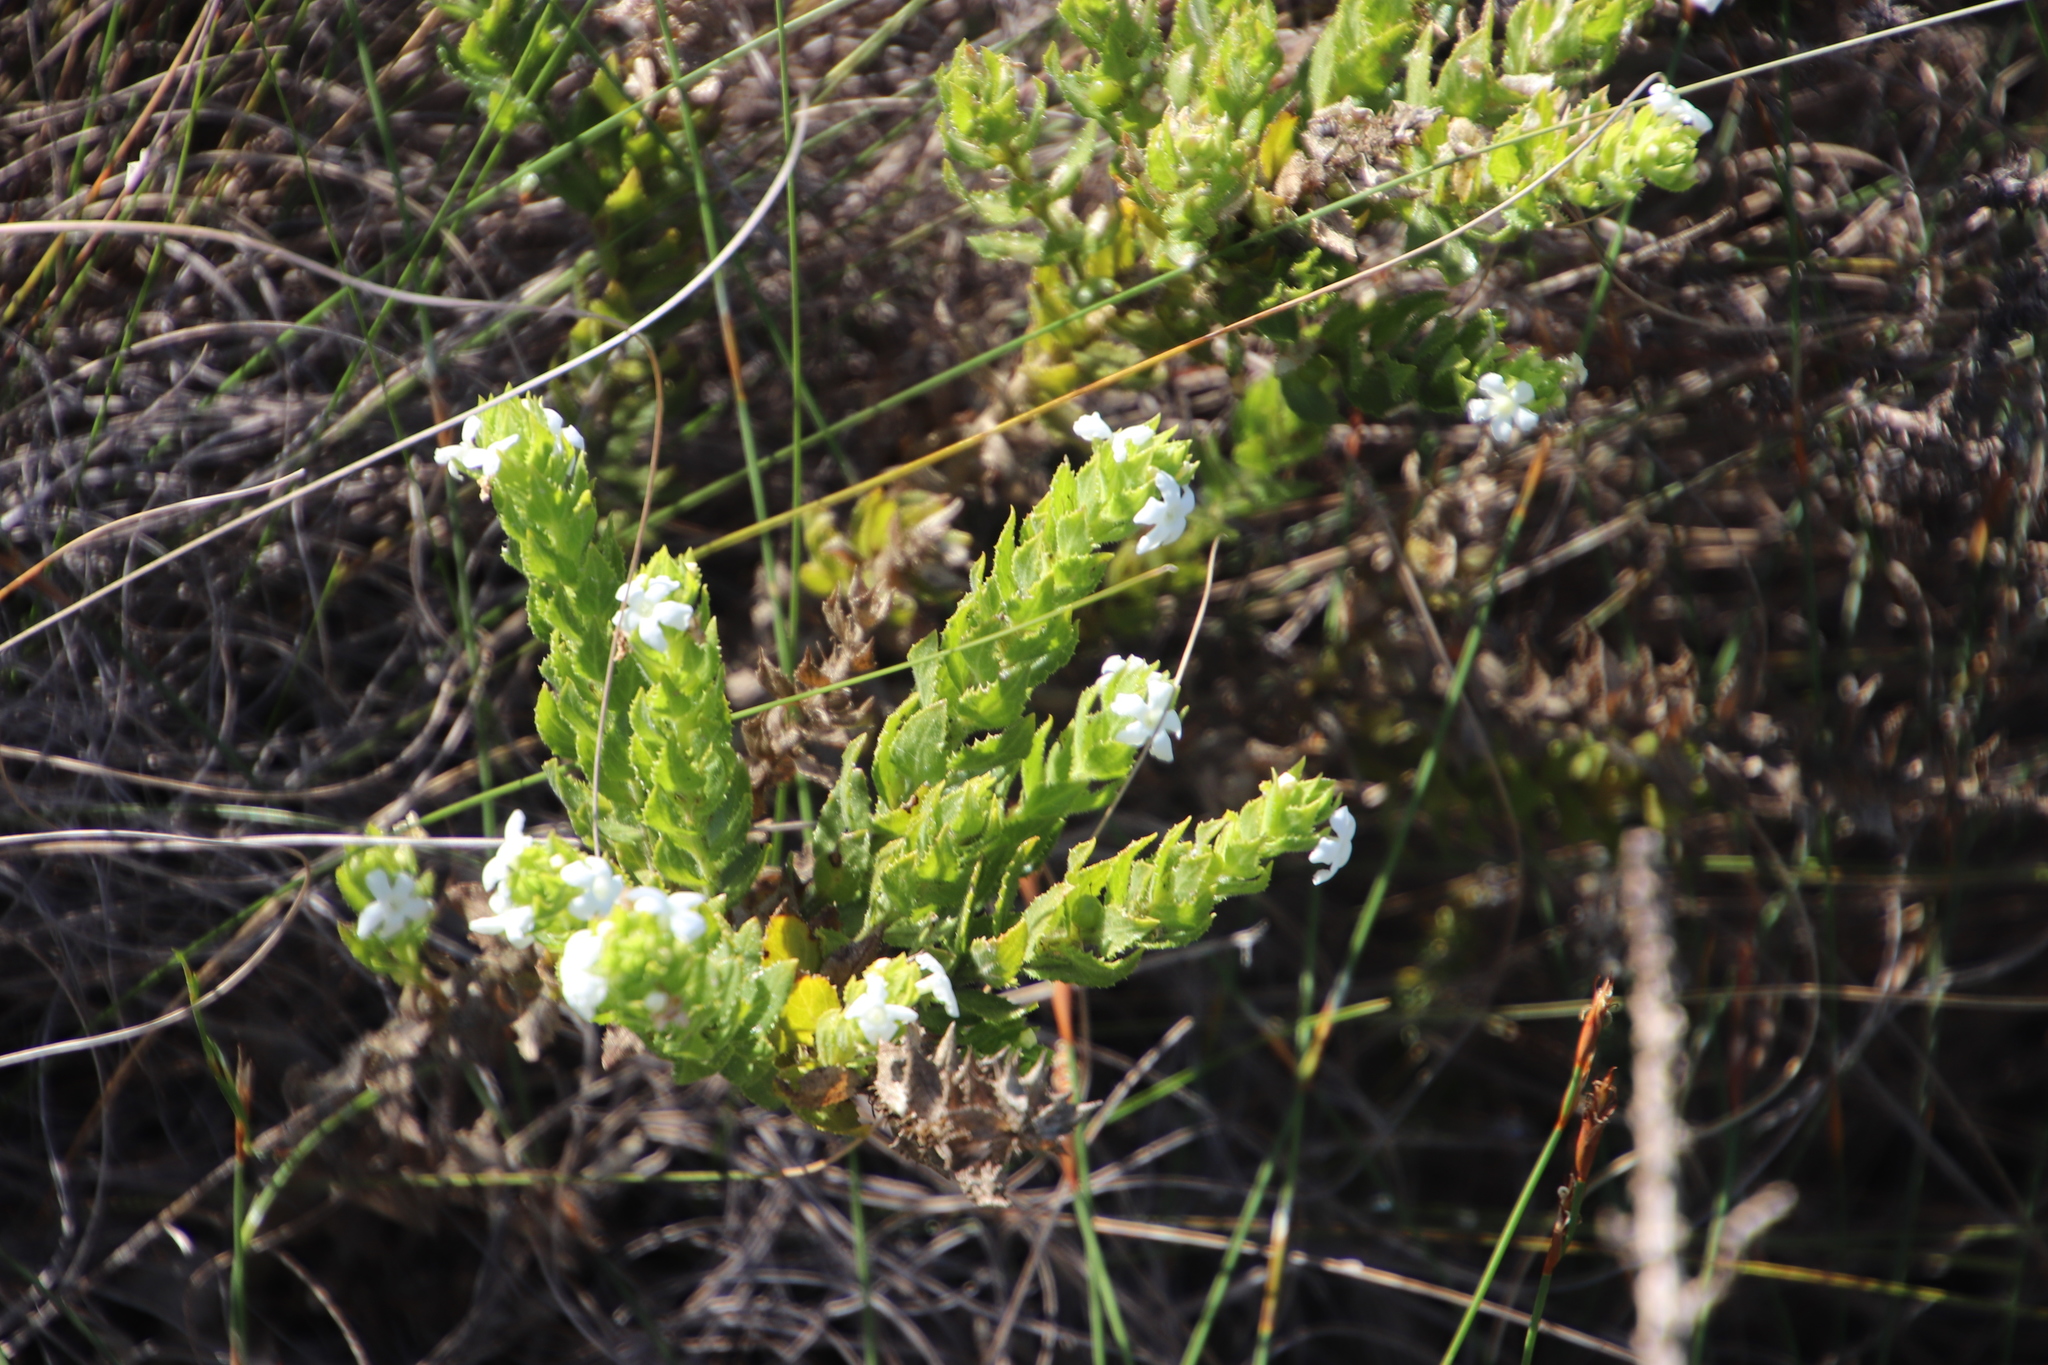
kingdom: Plantae
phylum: Tracheophyta
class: Magnoliopsida
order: Lamiales
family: Scrophulariaceae
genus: Oftia
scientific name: Oftia africana
